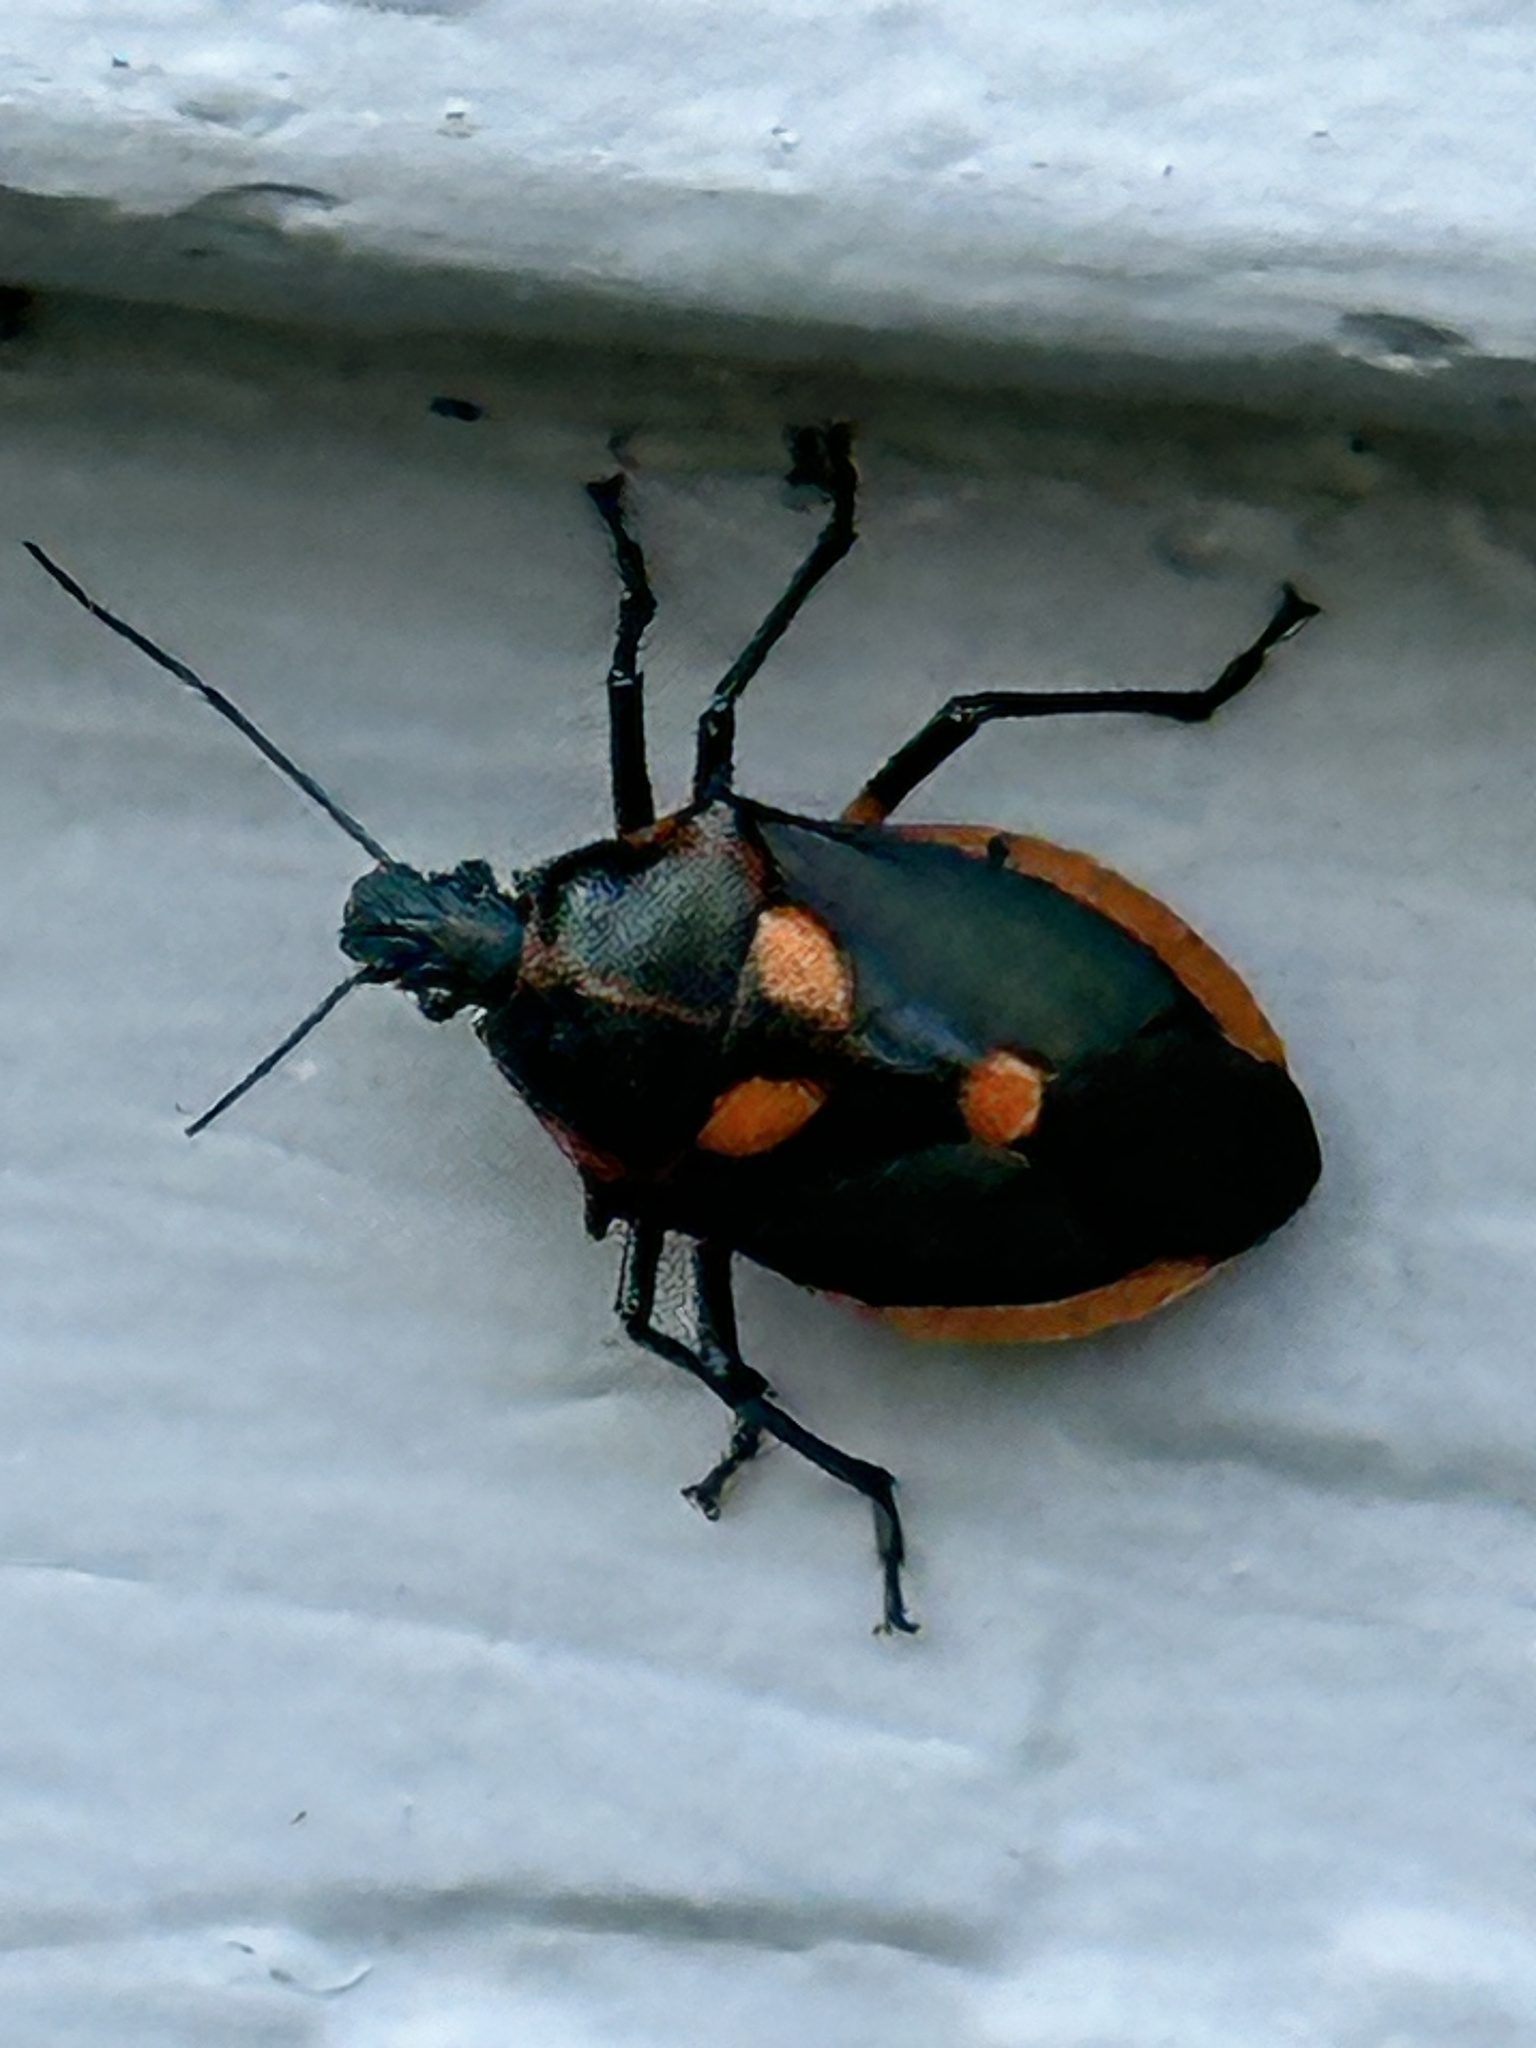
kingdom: Animalia
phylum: Arthropoda
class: Insecta
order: Hemiptera
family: Pentatomidae
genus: Euthyrhynchus
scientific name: Euthyrhynchus floridanus
